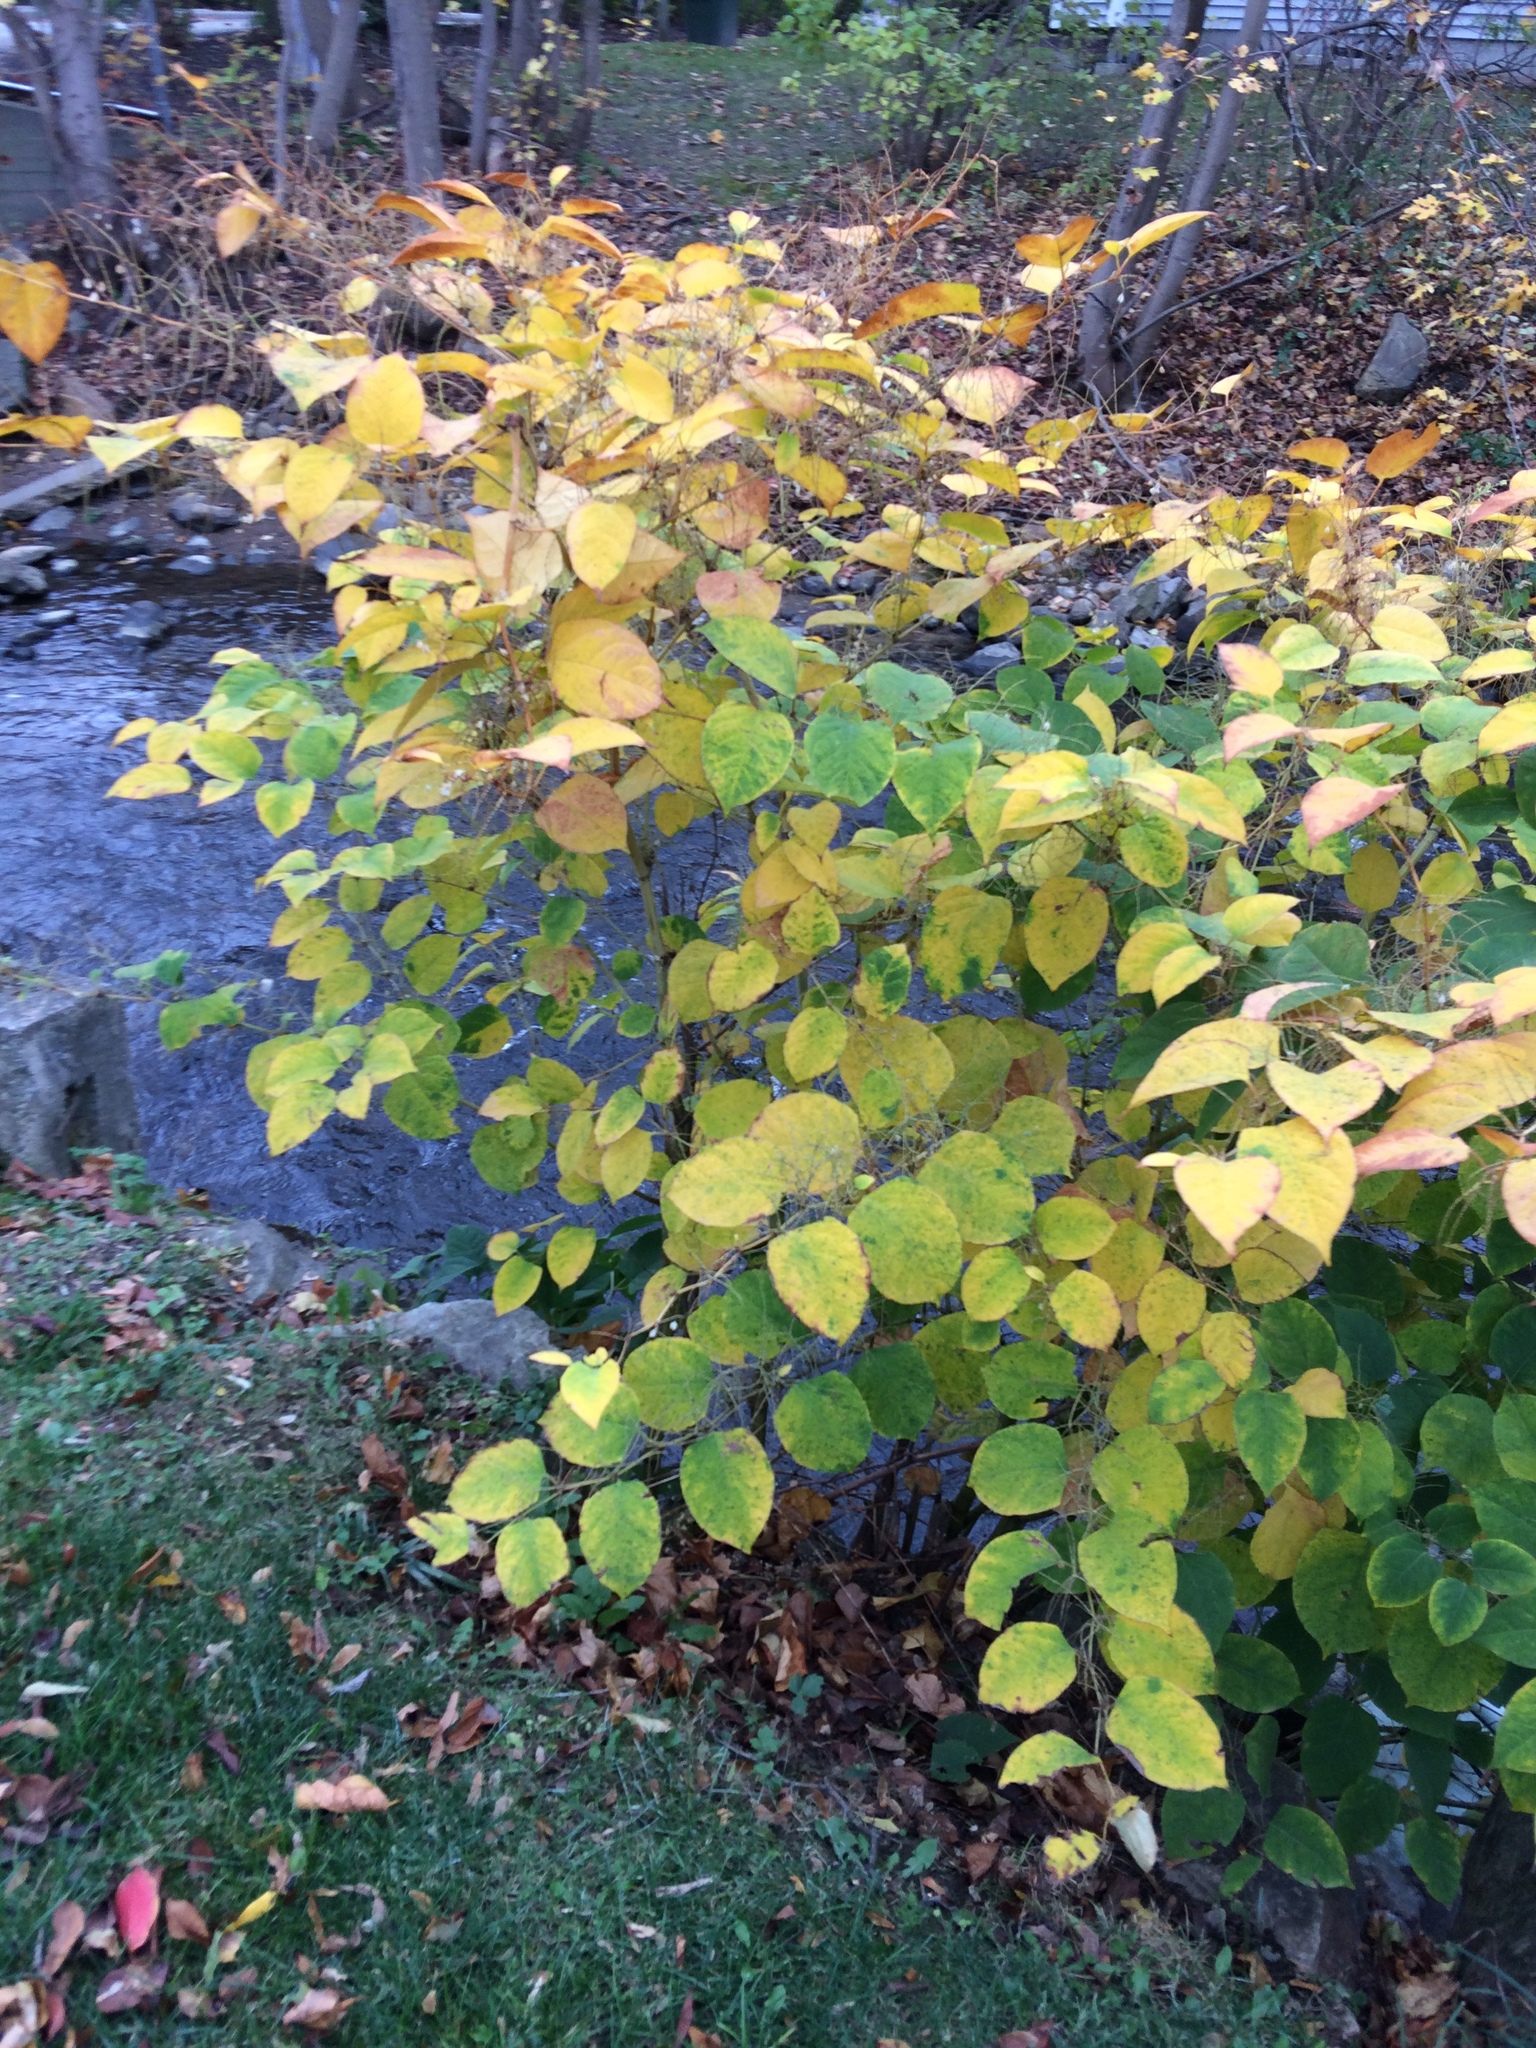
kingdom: Plantae
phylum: Tracheophyta
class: Magnoliopsida
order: Caryophyllales
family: Polygonaceae
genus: Reynoutria
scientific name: Reynoutria japonica
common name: Japanese knotweed
